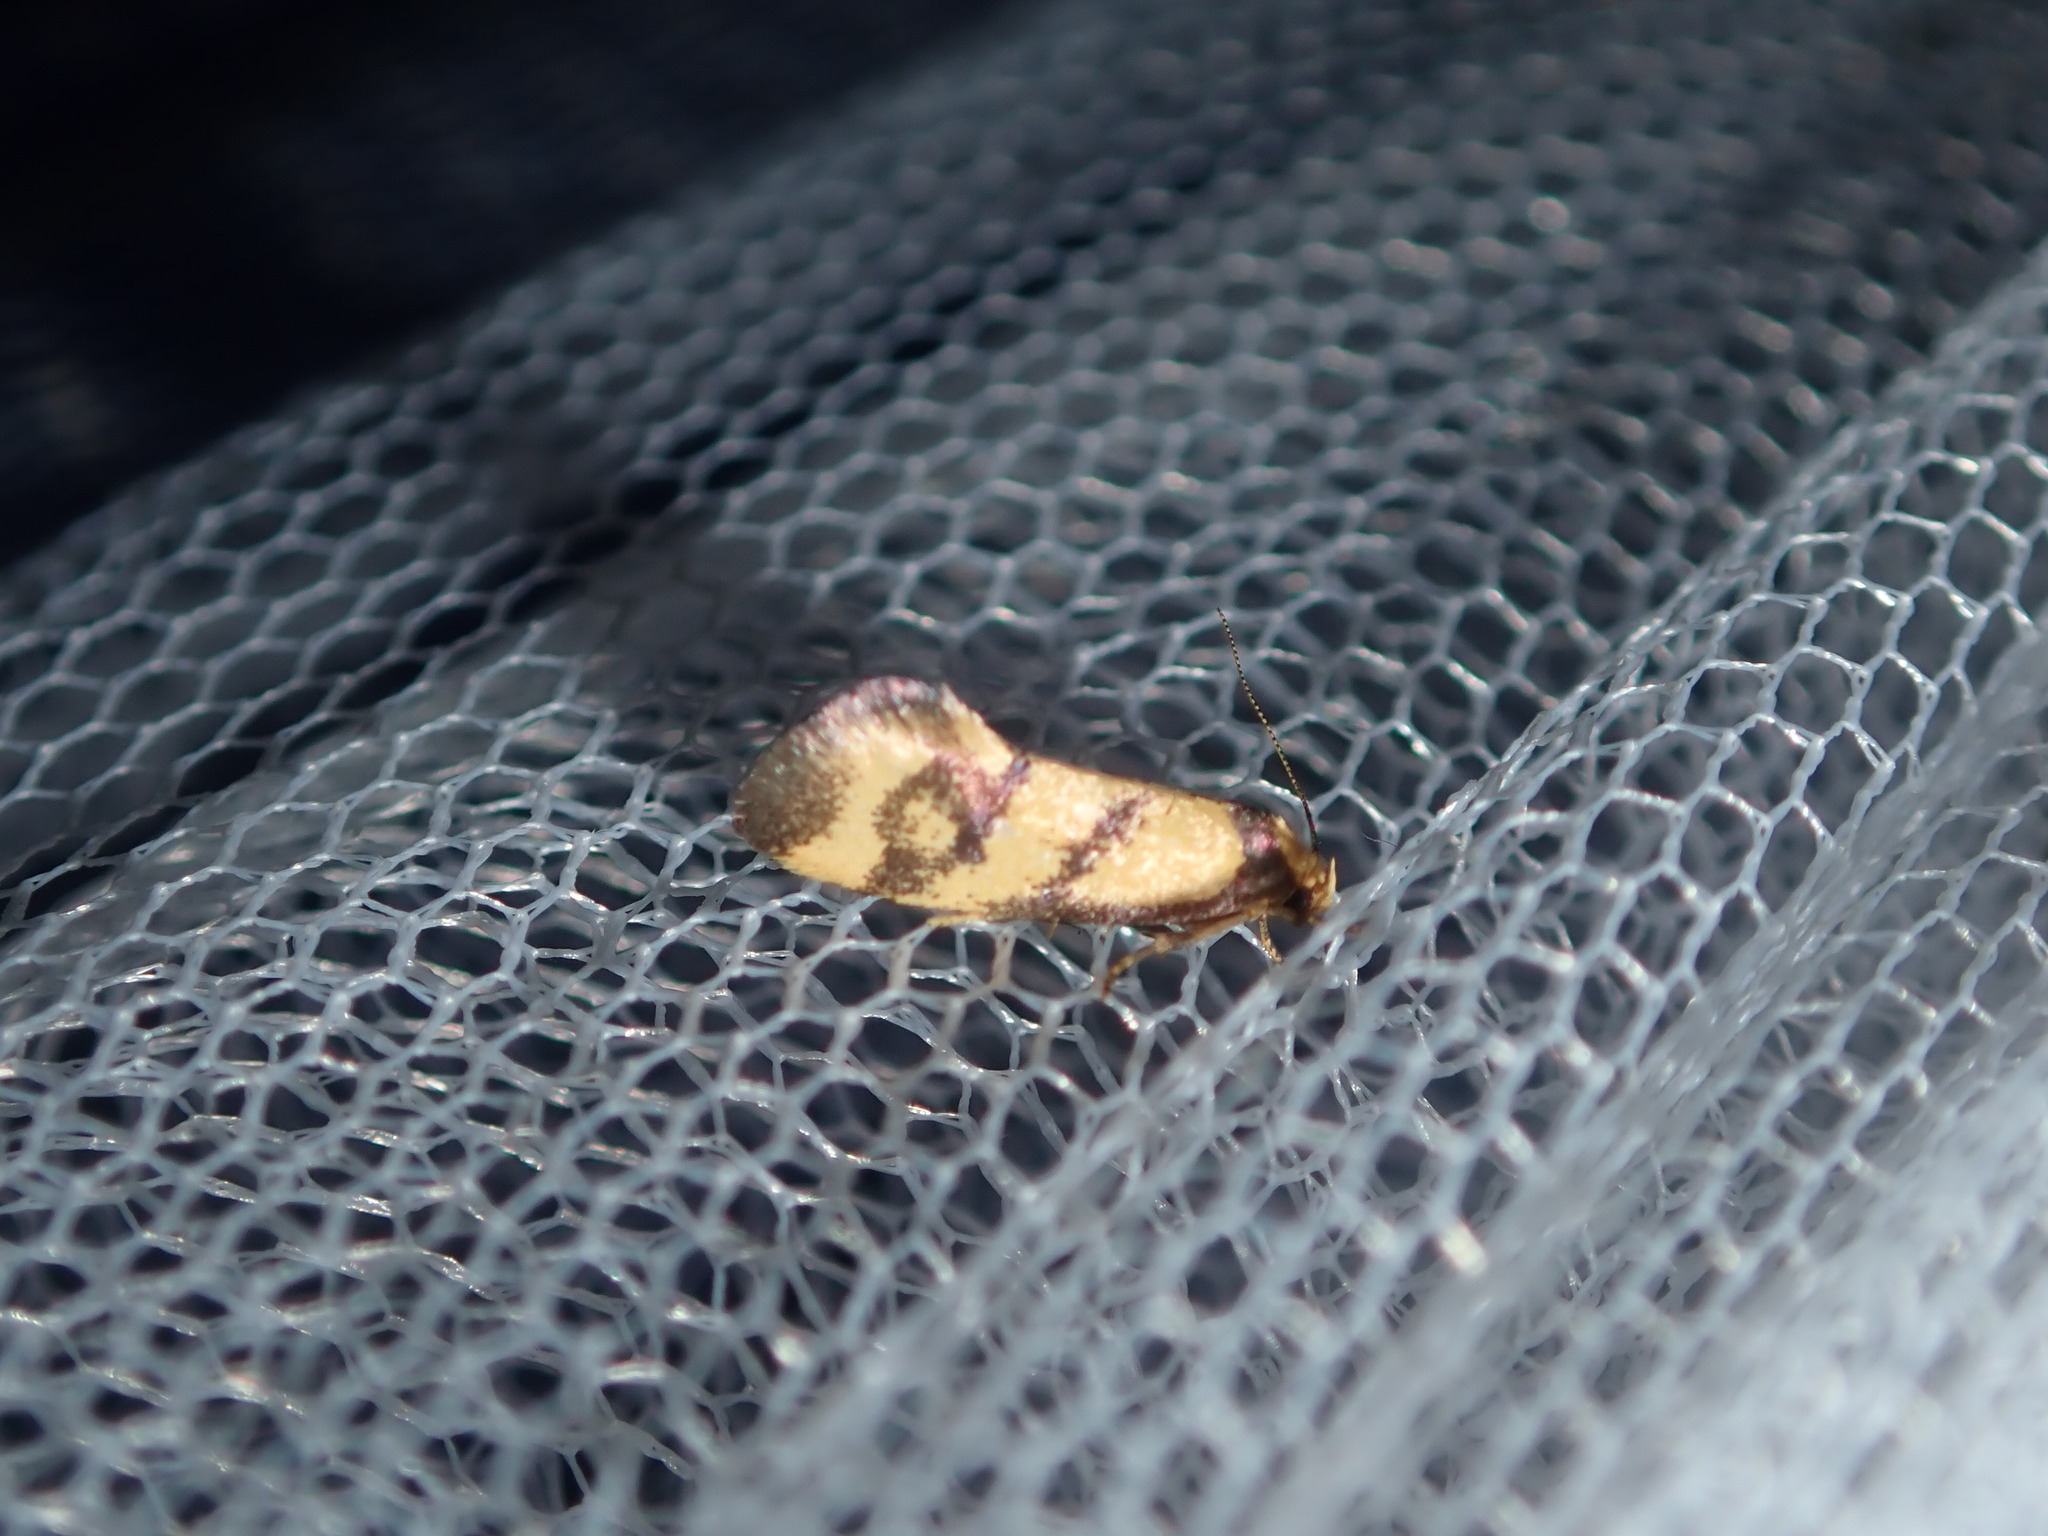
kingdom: Animalia
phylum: Arthropoda
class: Insecta
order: Lepidoptera
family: Oecophoridae
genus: Olbonoma
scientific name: Olbonoma triptycha
